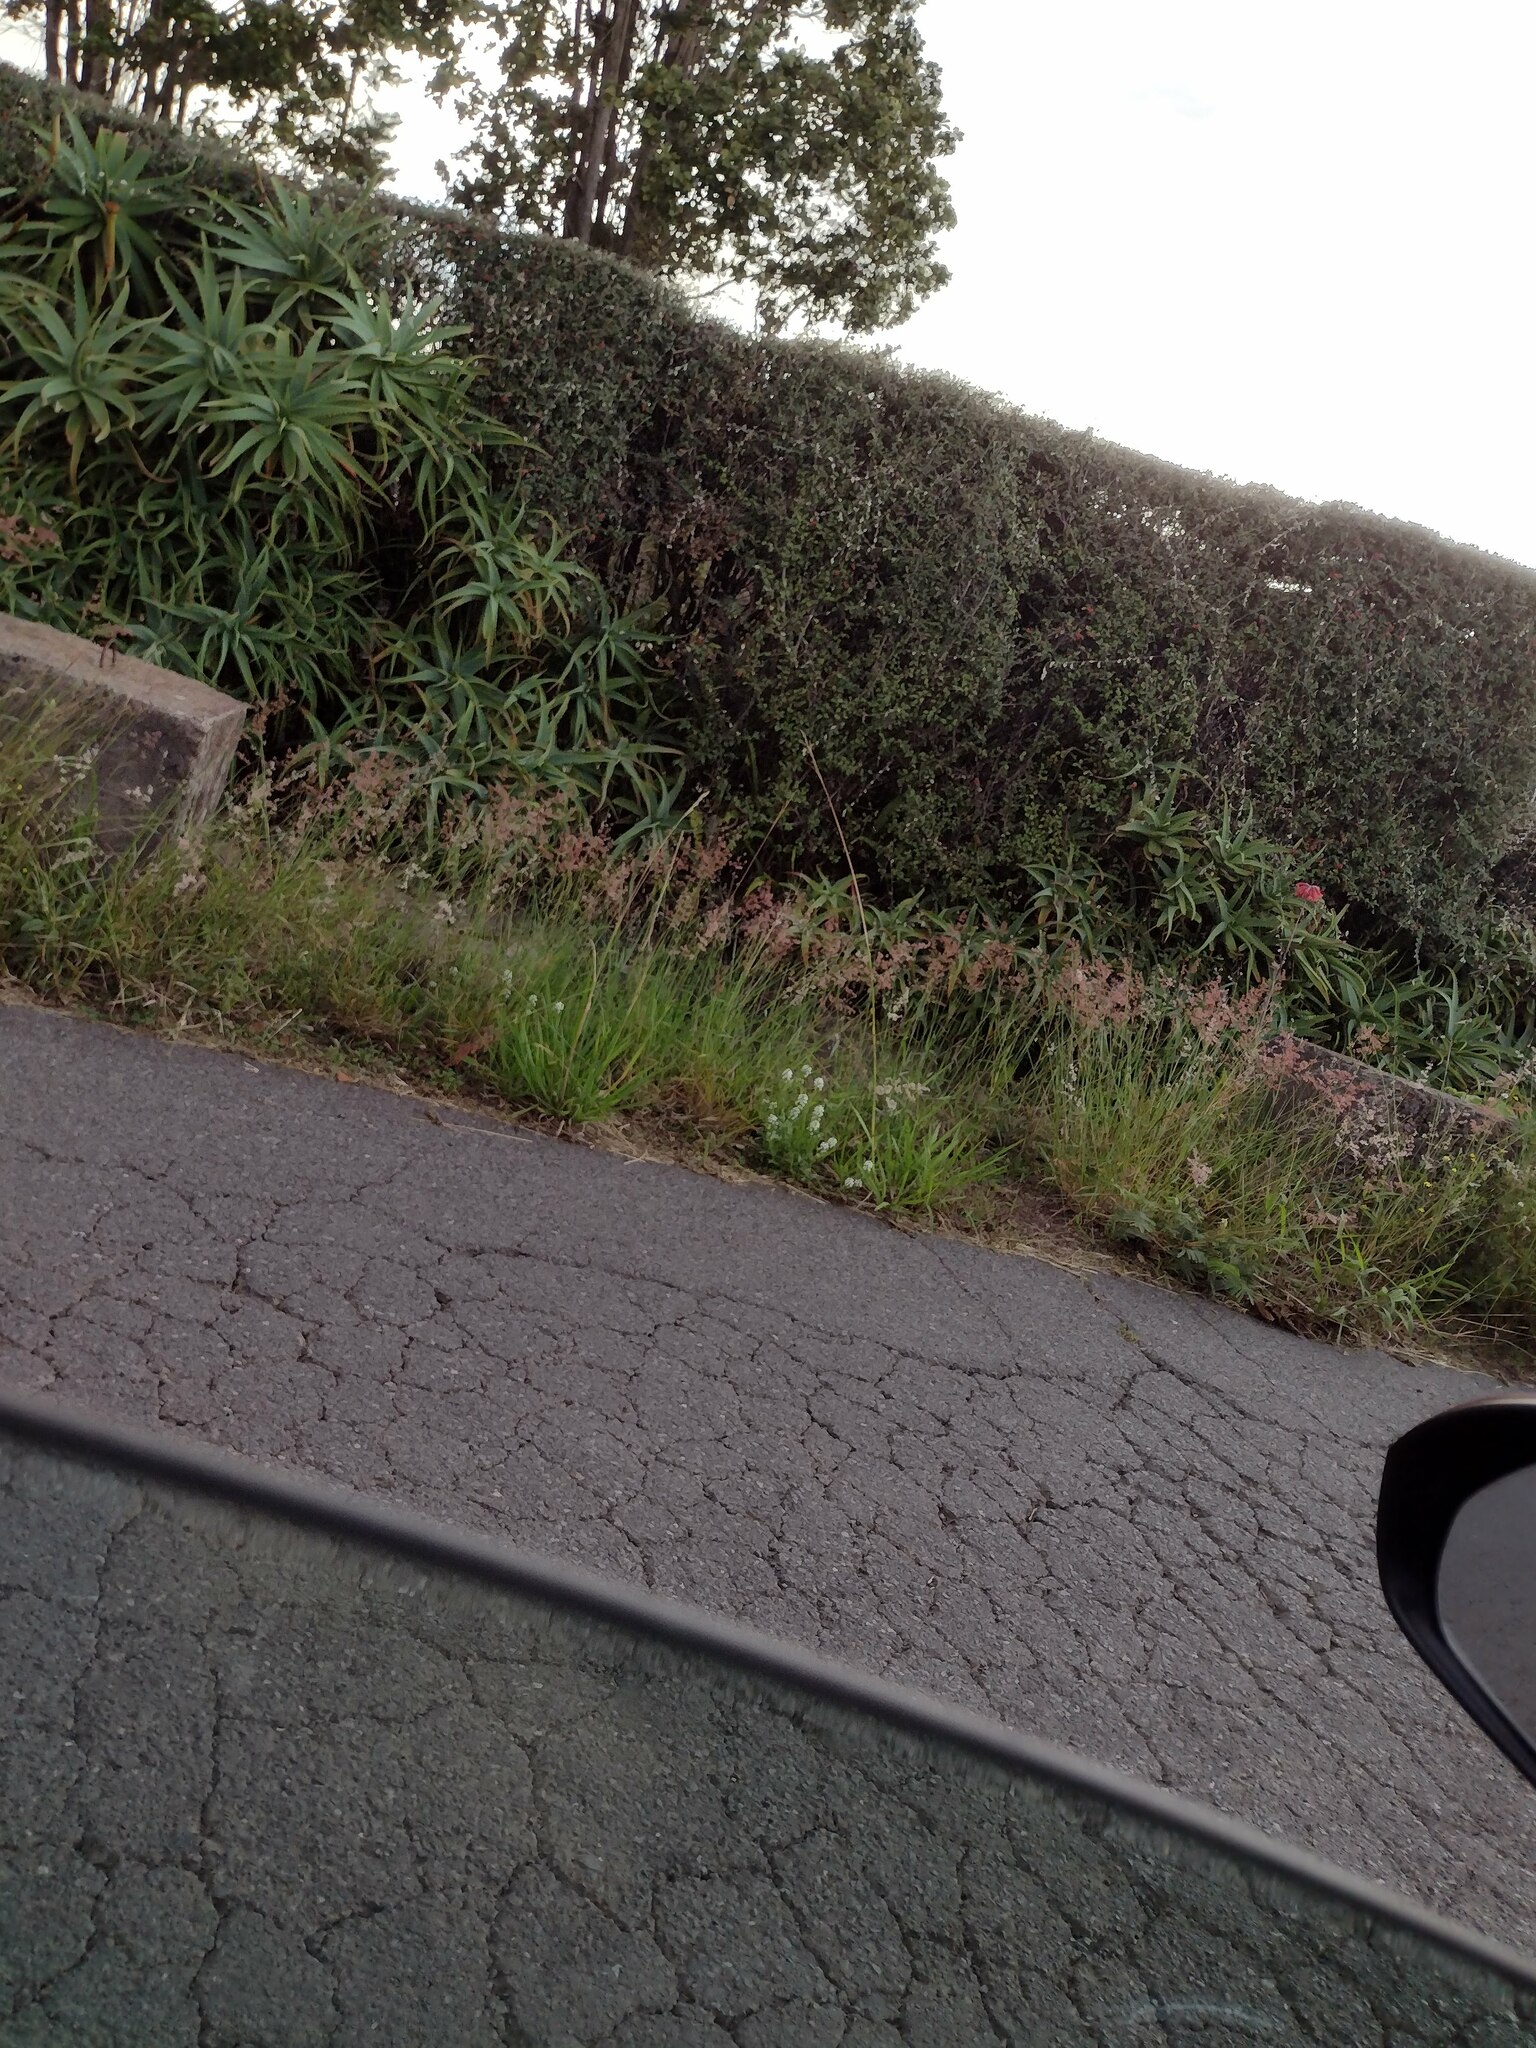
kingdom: Plantae
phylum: Tracheophyta
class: Liliopsida
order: Poales
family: Poaceae
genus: Melinis
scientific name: Melinis repens
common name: Rose natal grass
